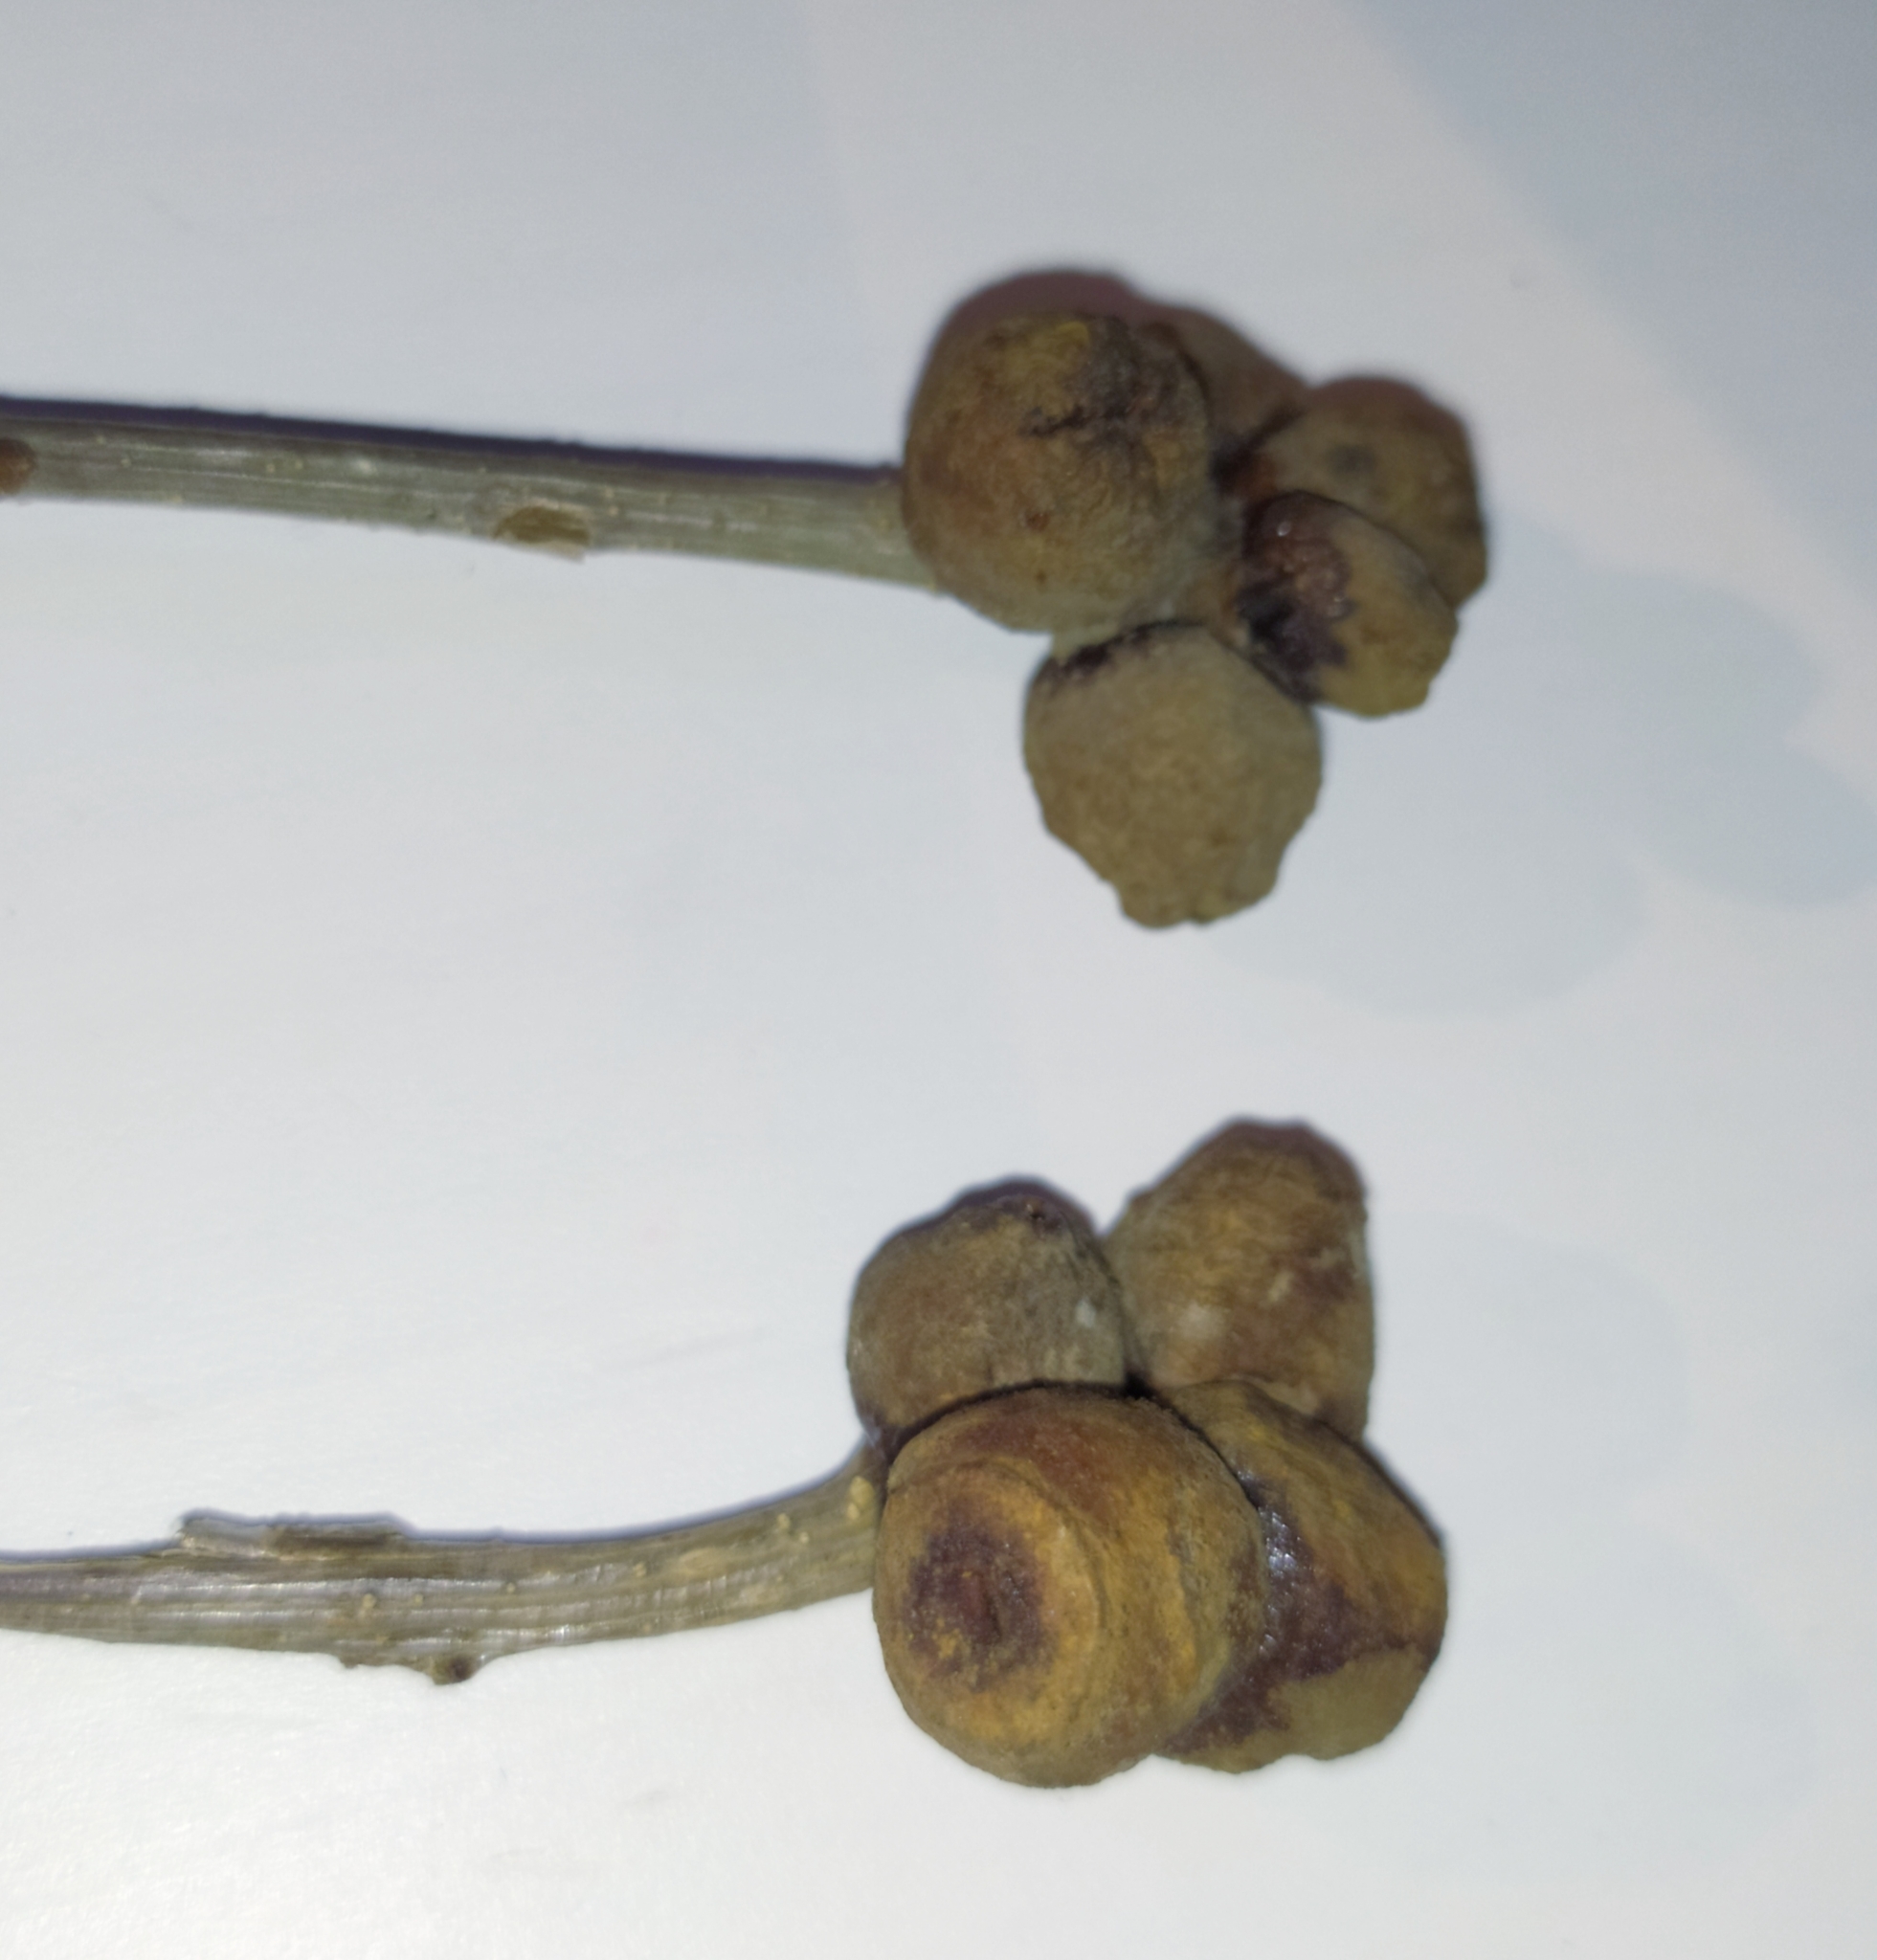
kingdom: Animalia
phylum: Arthropoda
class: Insecta
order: Hymenoptera
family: Cynipidae
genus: Andricus
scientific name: Andricus glutinosus
